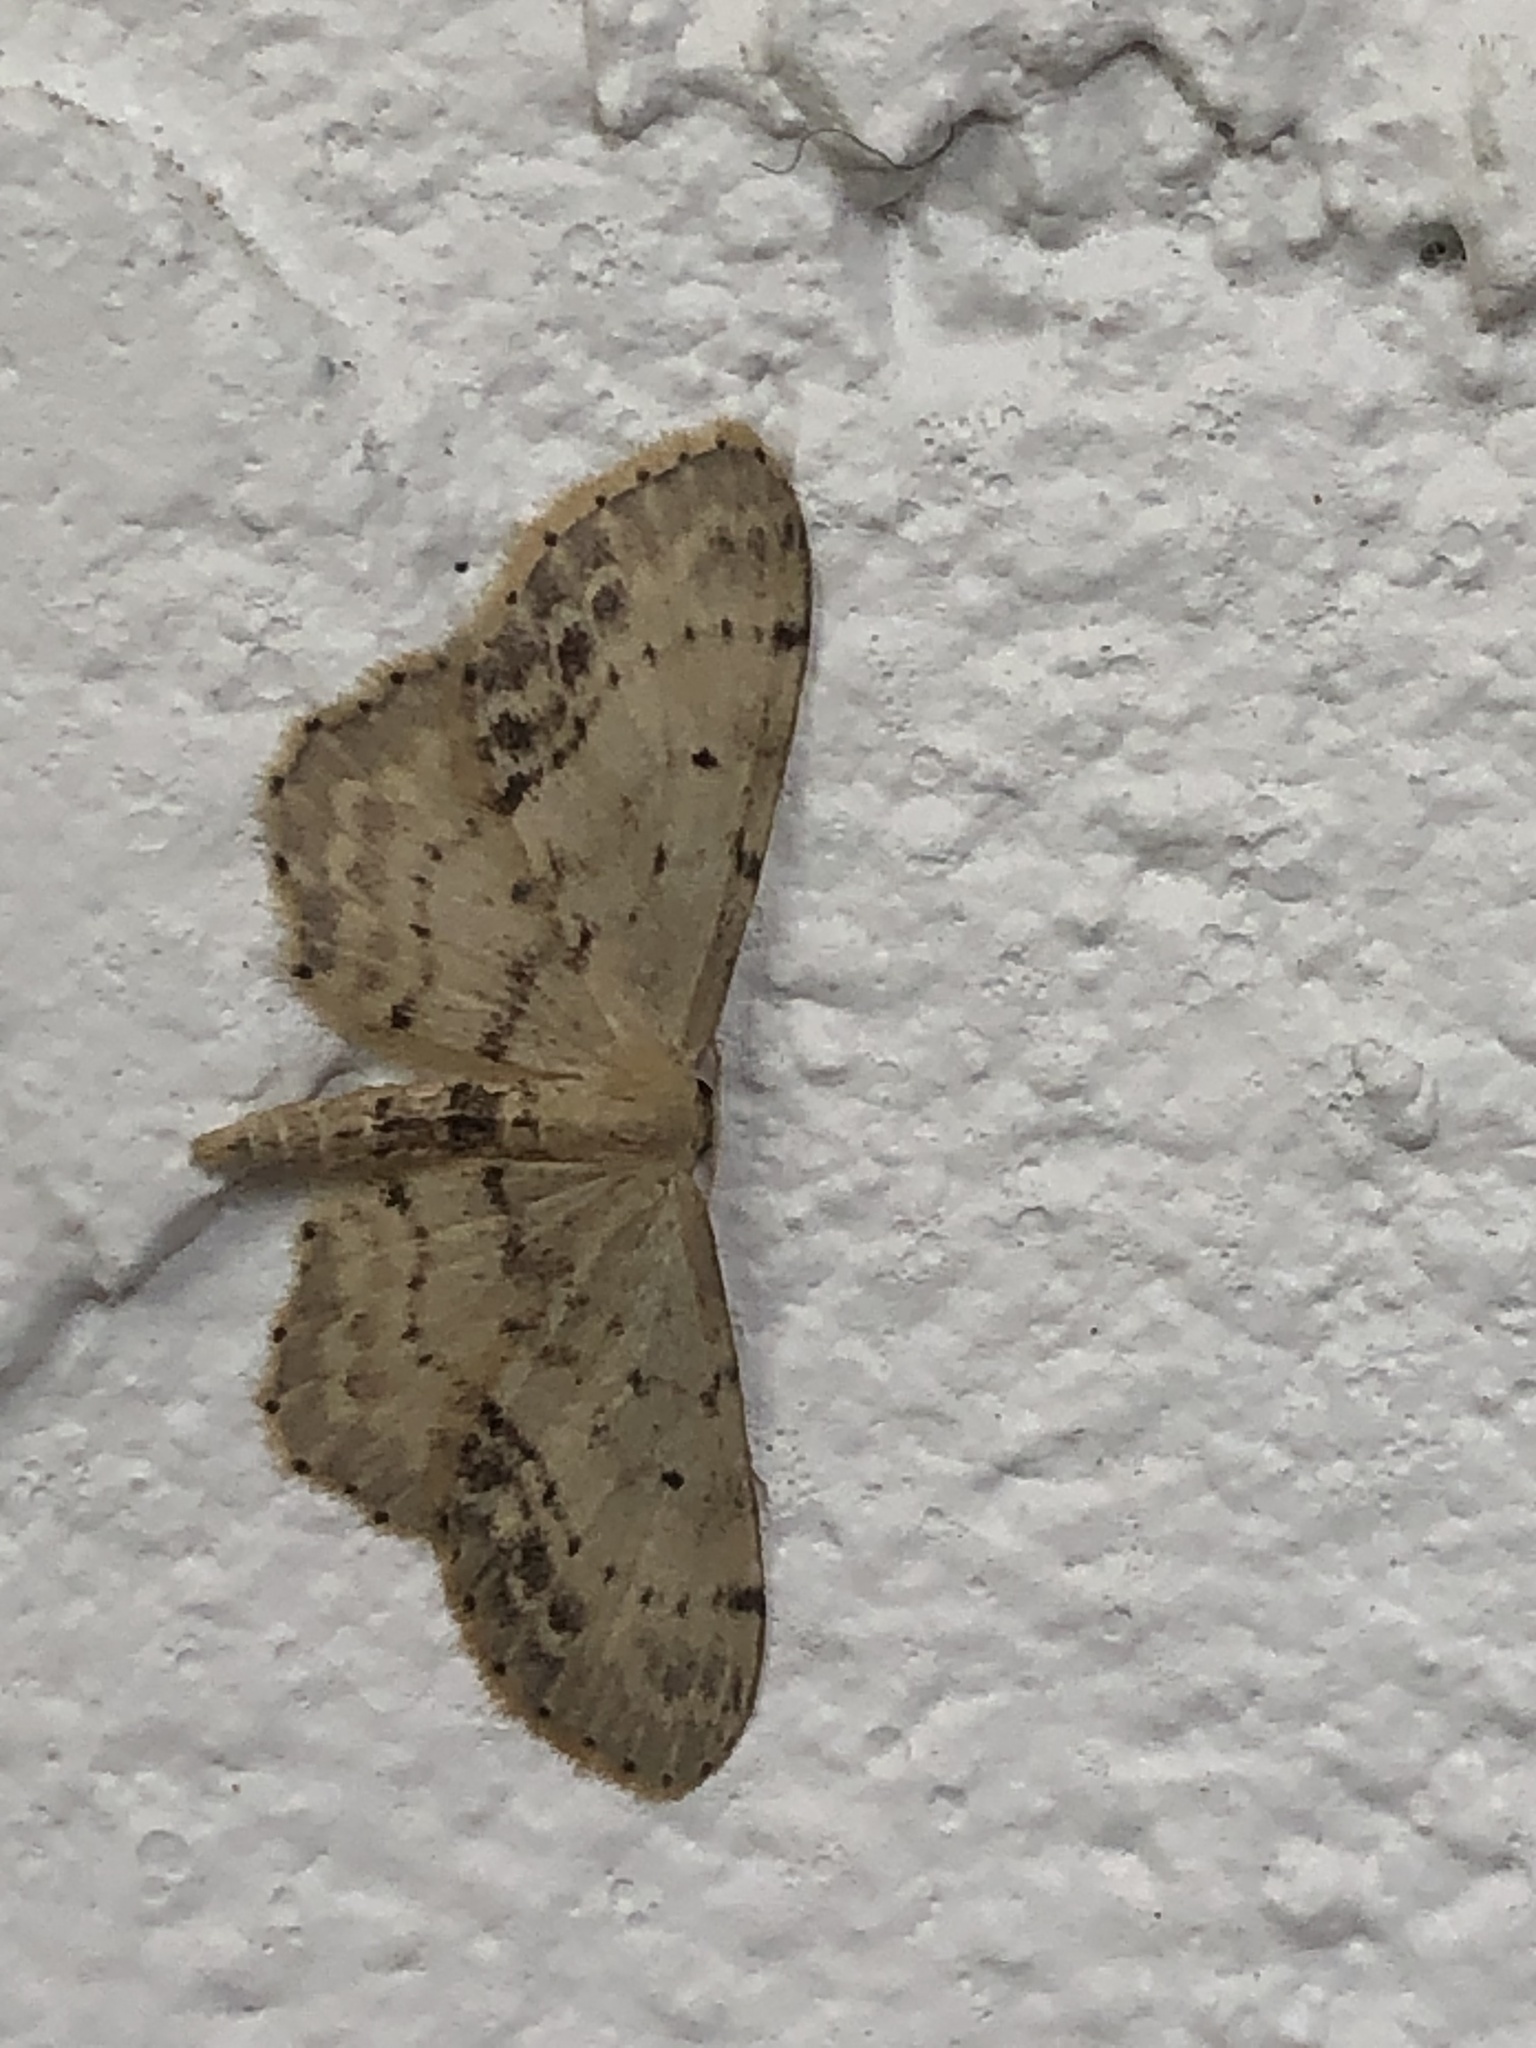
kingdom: Animalia
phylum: Arthropoda
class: Insecta
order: Lepidoptera
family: Geometridae
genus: Idaea
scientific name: Idaea dimidiata
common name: Single-dotted wave
